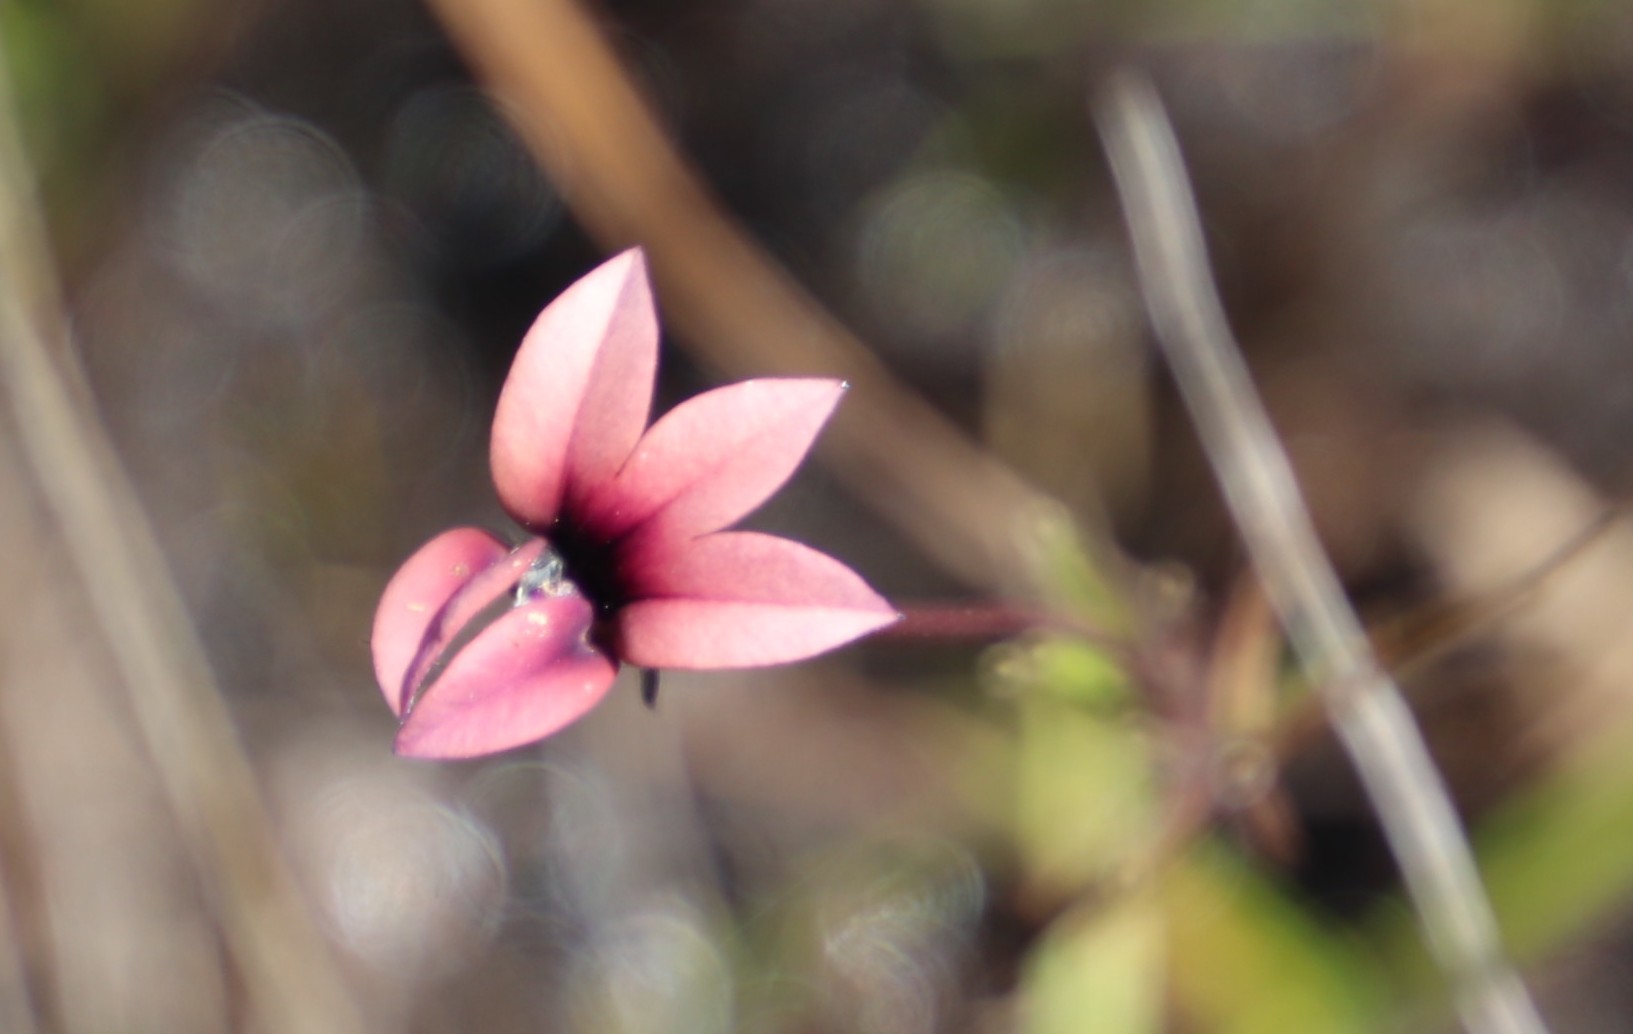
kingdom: Plantae
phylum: Tracheophyta
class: Magnoliopsida
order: Asterales
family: Campanulaceae
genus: Monopsis
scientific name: Monopsis unidentata
